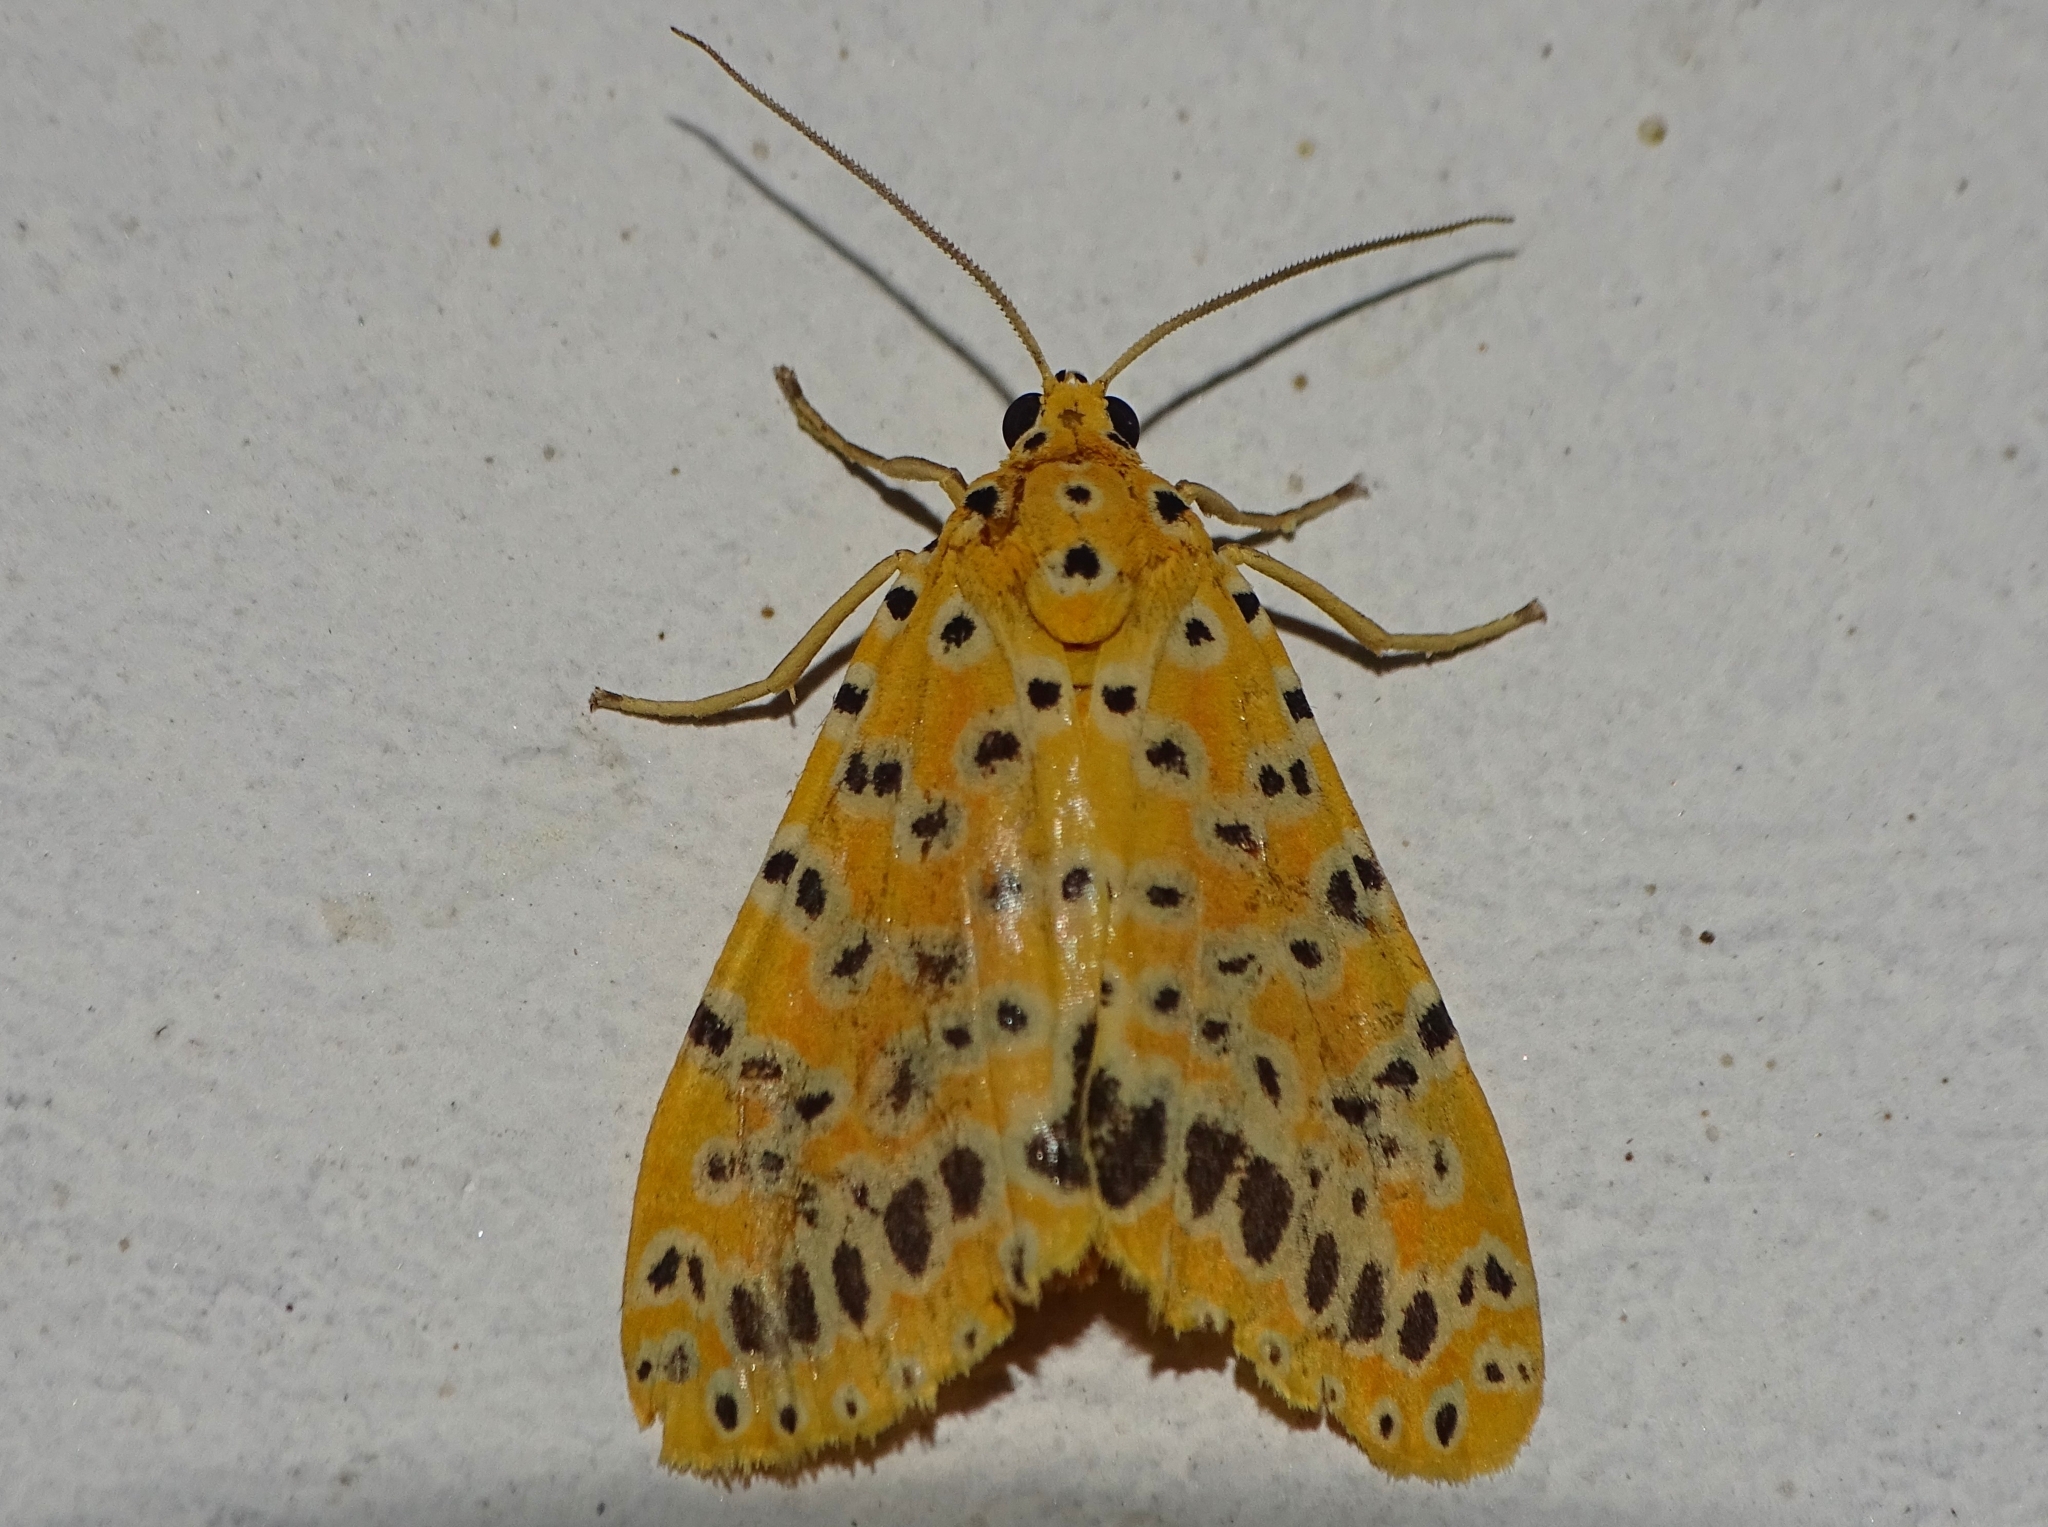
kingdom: Animalia
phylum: Arthropoda
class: Insecta
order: Lepidoptera
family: Erebidae
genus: Argina
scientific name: Argina astrea
